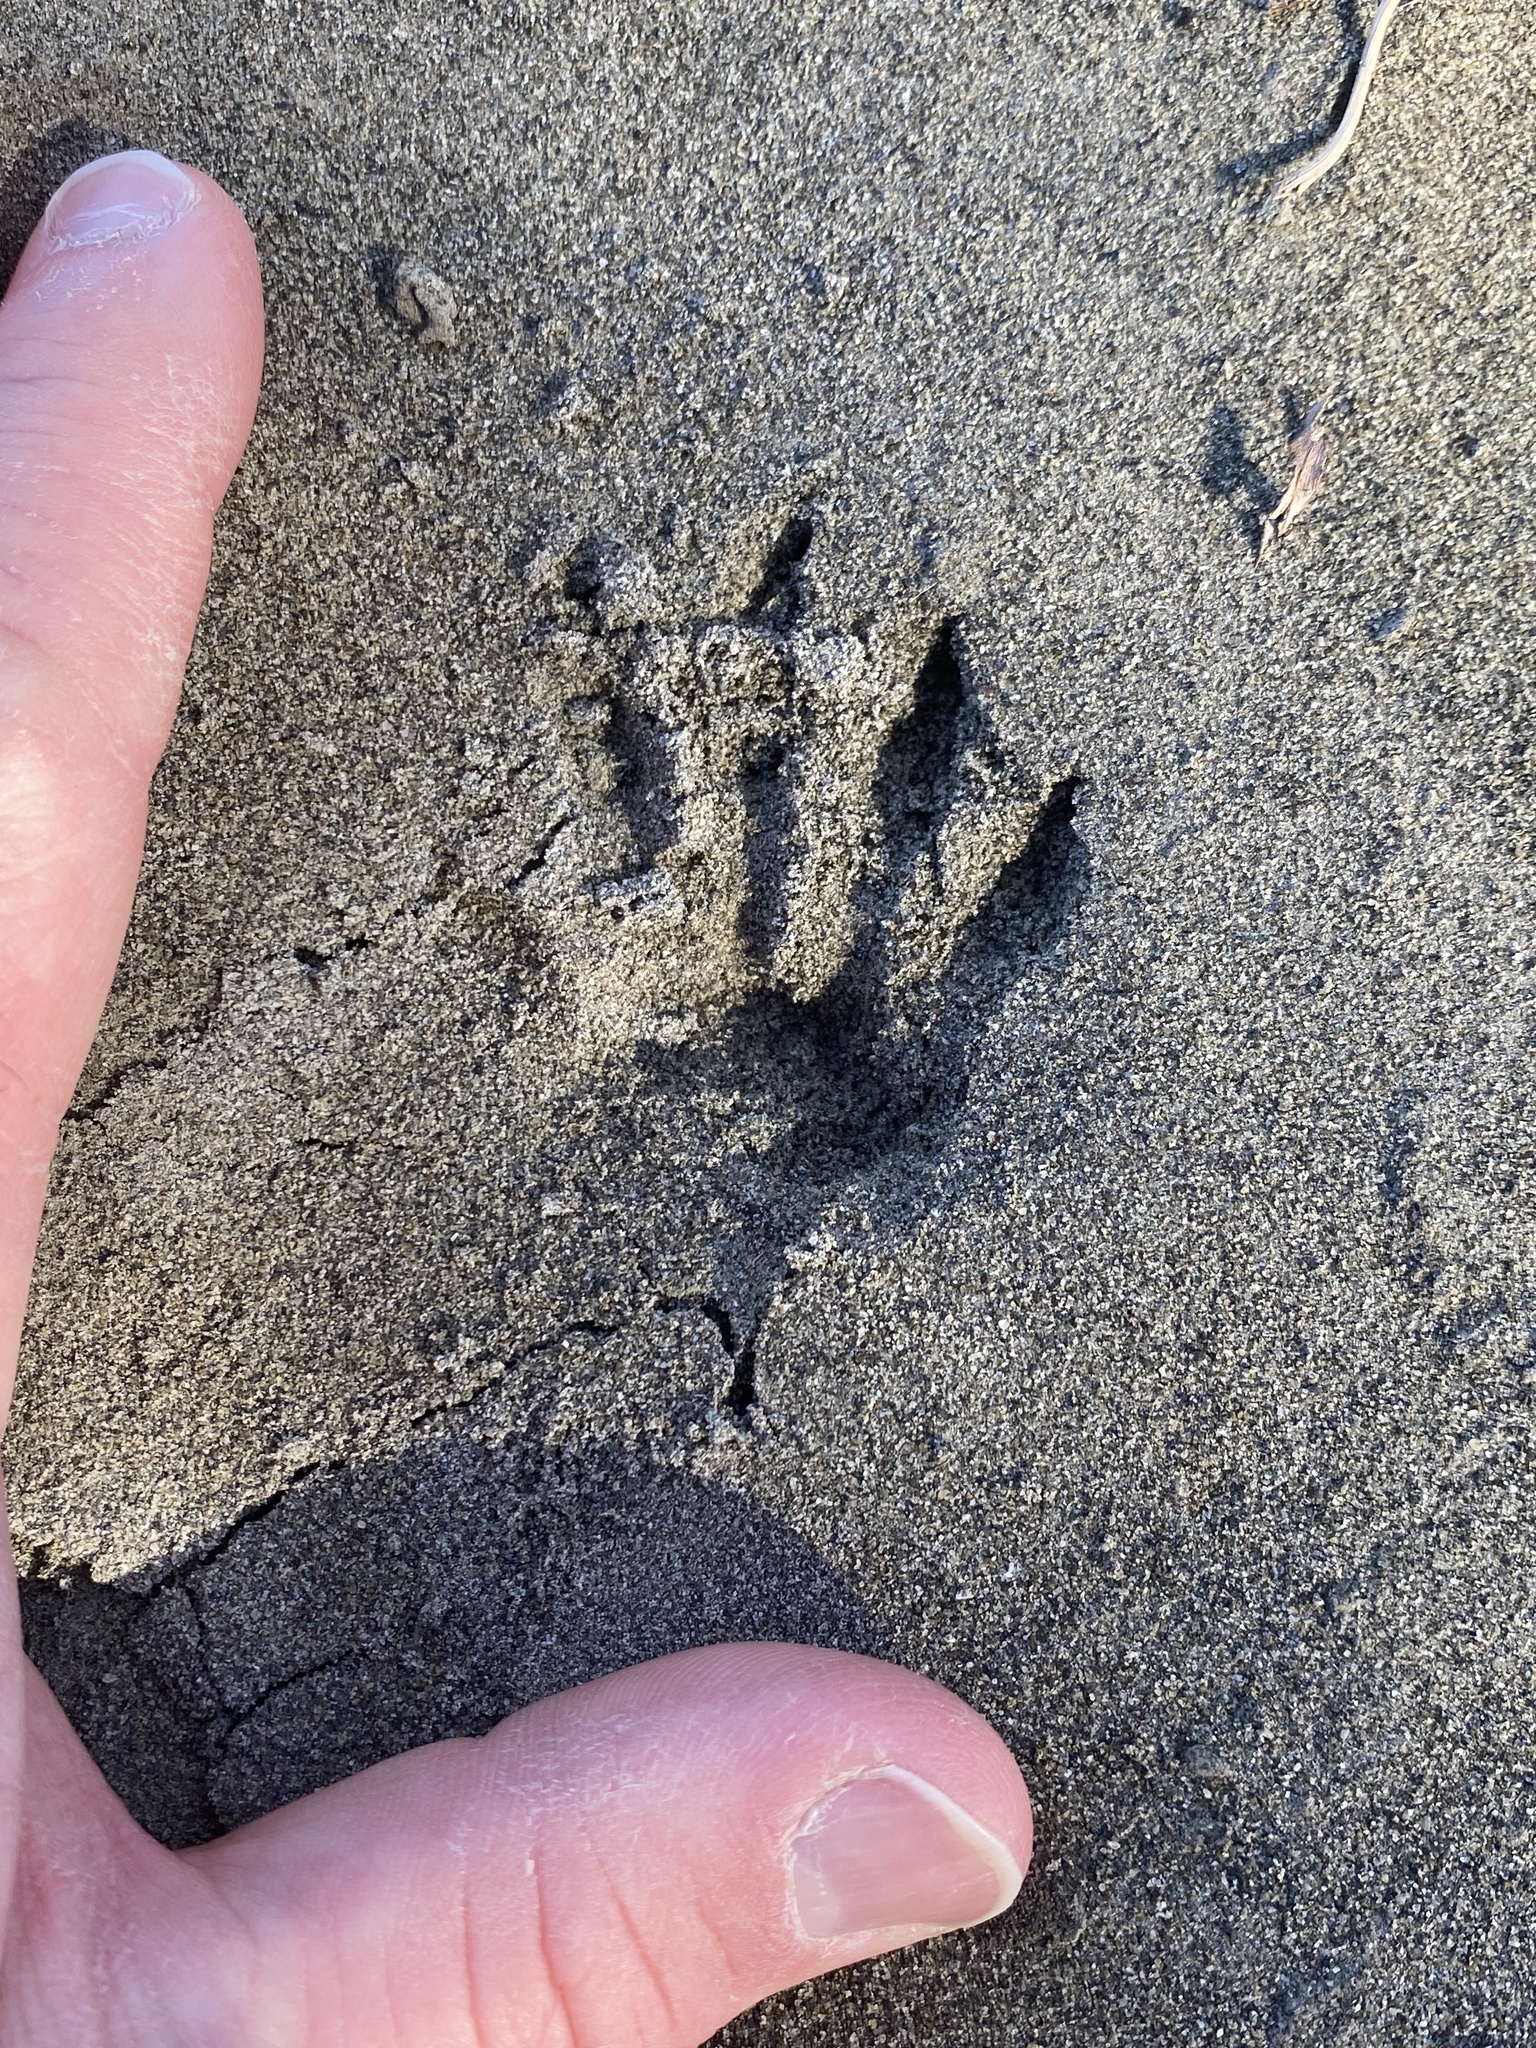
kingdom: Animalia
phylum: Chordata
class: Mammalia
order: Erinaceomorpha
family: Erinaceidae
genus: Erinaceus
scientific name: Erinaceus europaeus
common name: West european hedgehog
